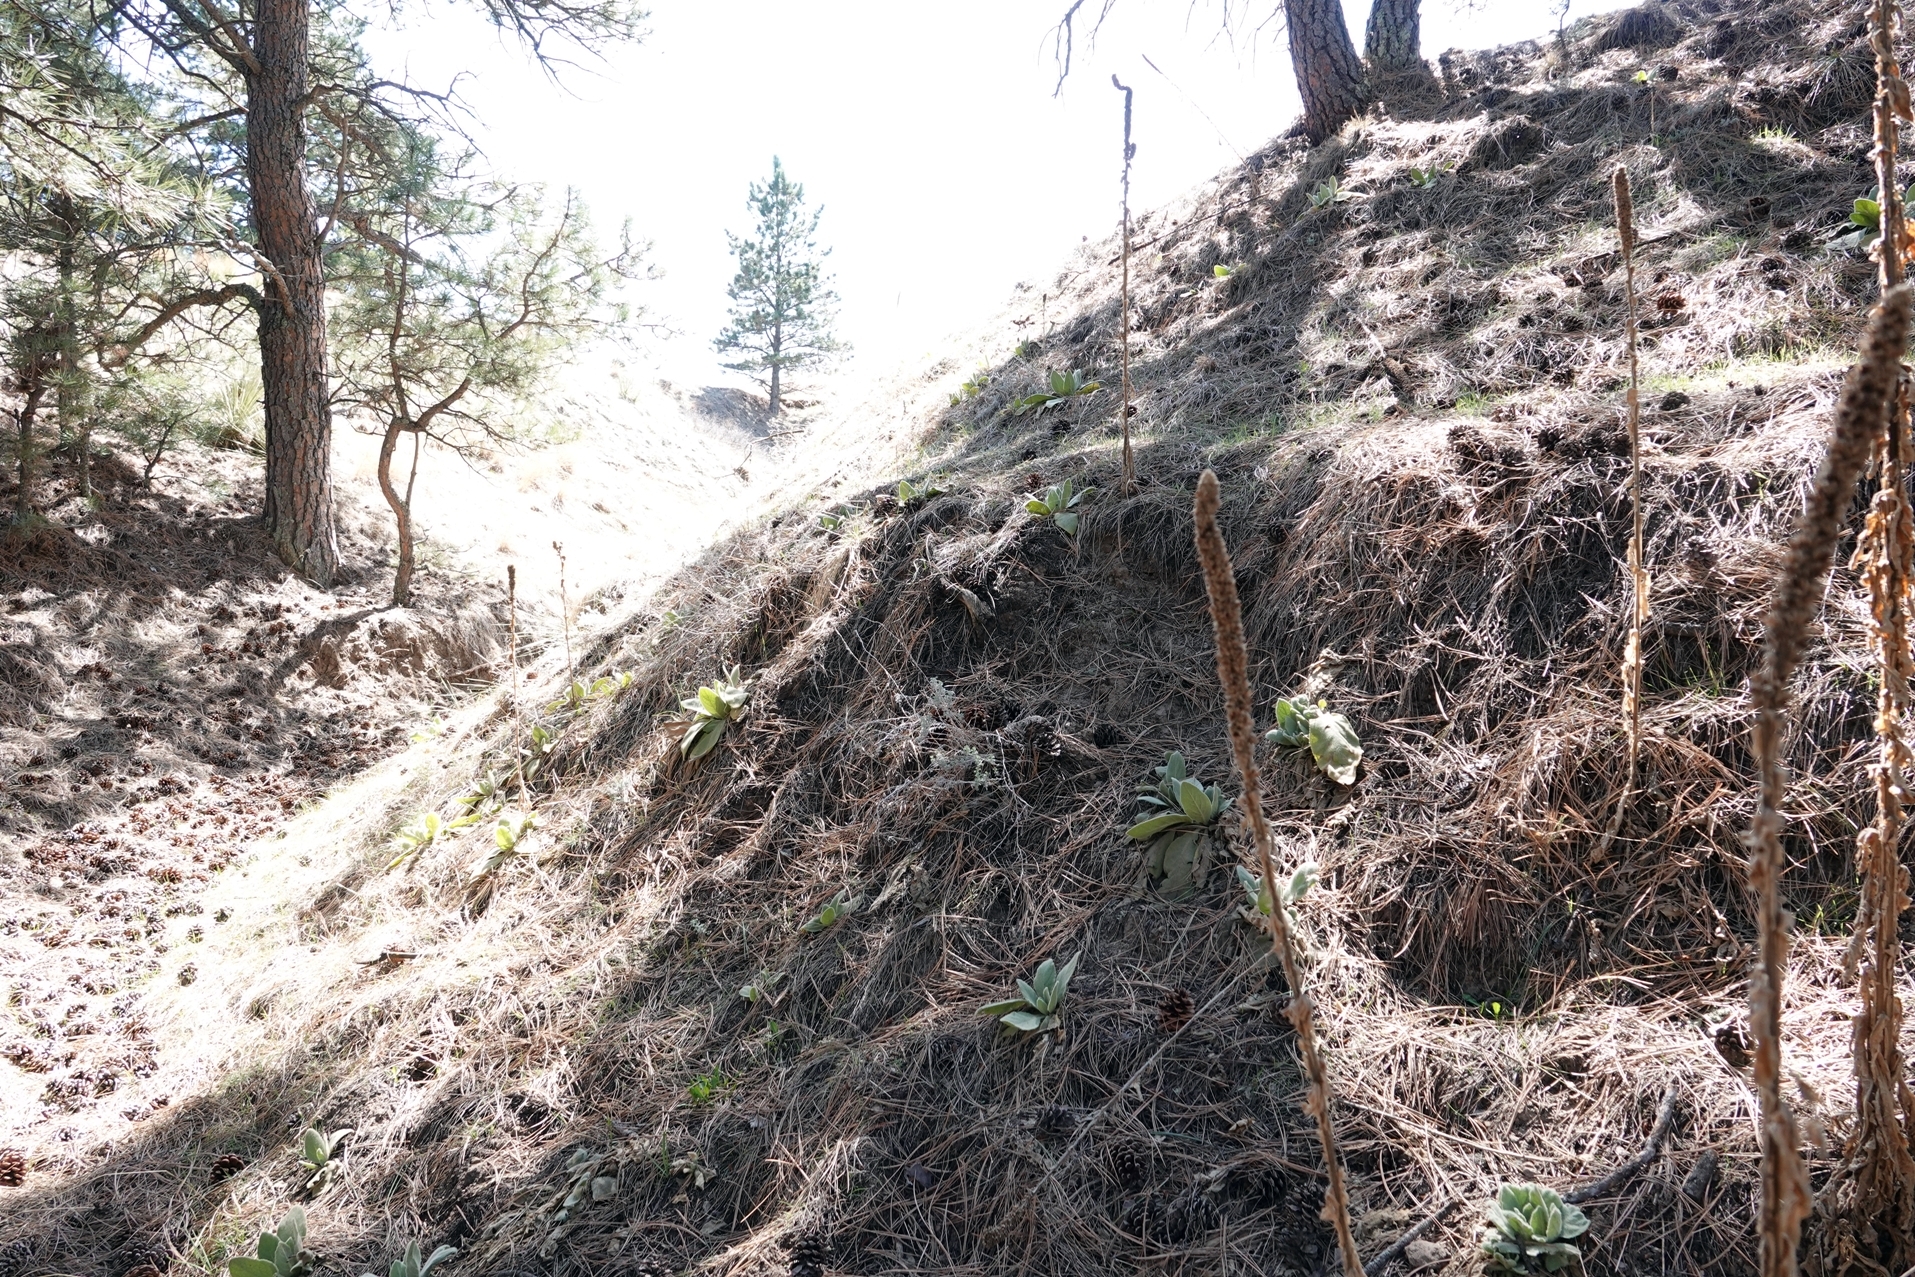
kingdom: Plantae
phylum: Tracheophyta
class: Magnoliopsida
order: Lamiales
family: Scrophulariaceae
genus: Verbascum
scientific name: Verbascum thapsus
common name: Common mullein
